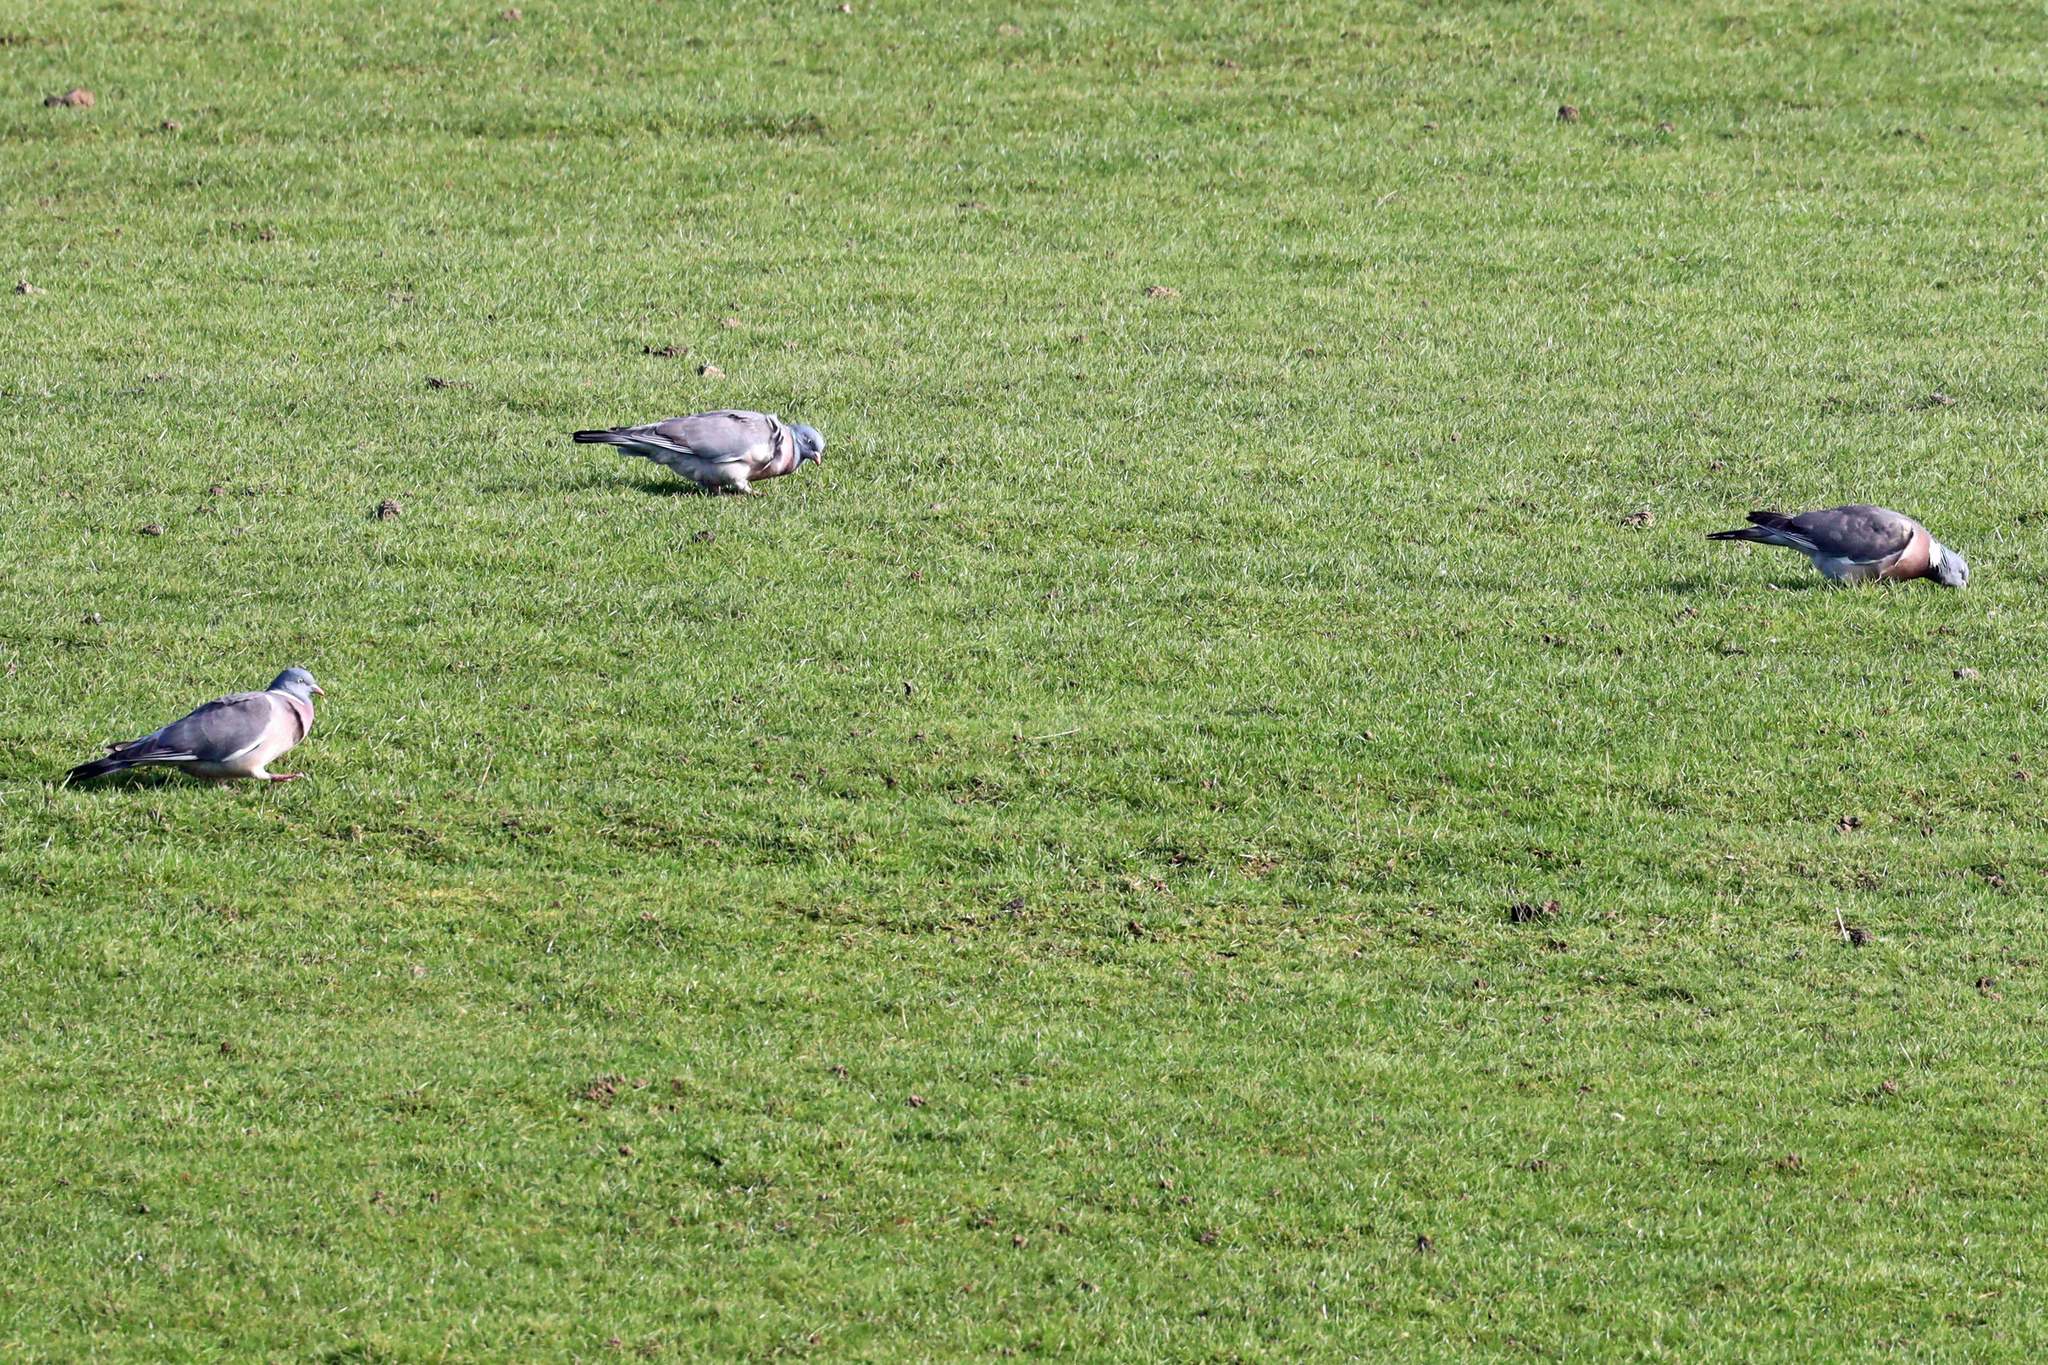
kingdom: Animalia
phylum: Chordata
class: Aves
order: Columbiformes
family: Columbidae
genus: Columba
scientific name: Columba palumbus
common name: Common wood pigeon
